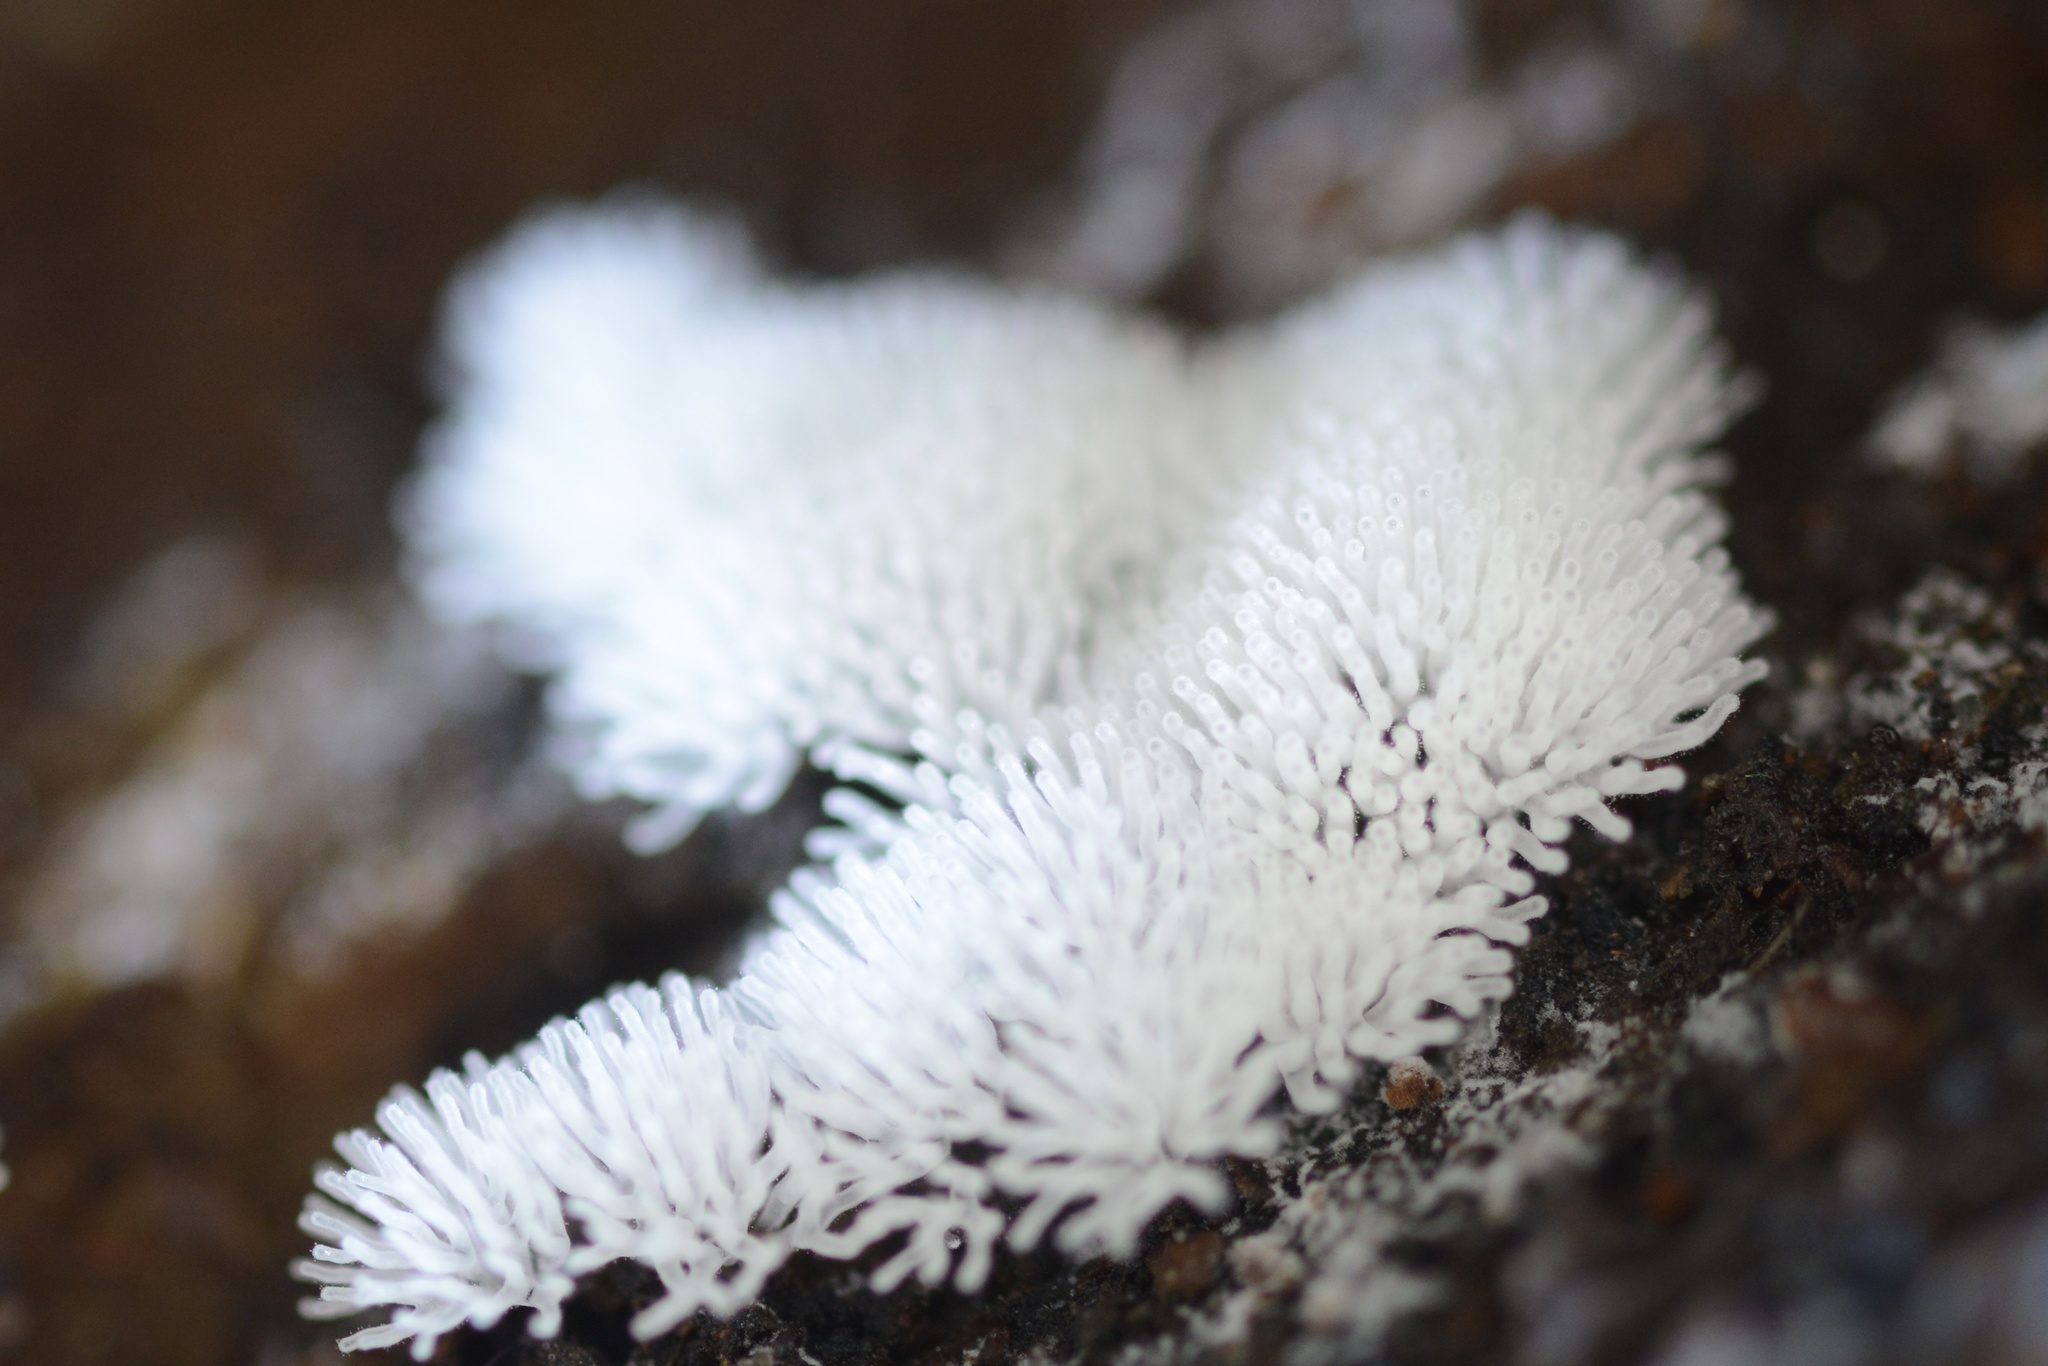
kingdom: Protozoa
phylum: Mycetozoa
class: Protosteliomycetes
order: Ceratiomyxales
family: Ceratiomyxaceae
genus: Ceratiomyxa
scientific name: Ceratiomyxa fruticulosa
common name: Honeycomb coral slime mold
